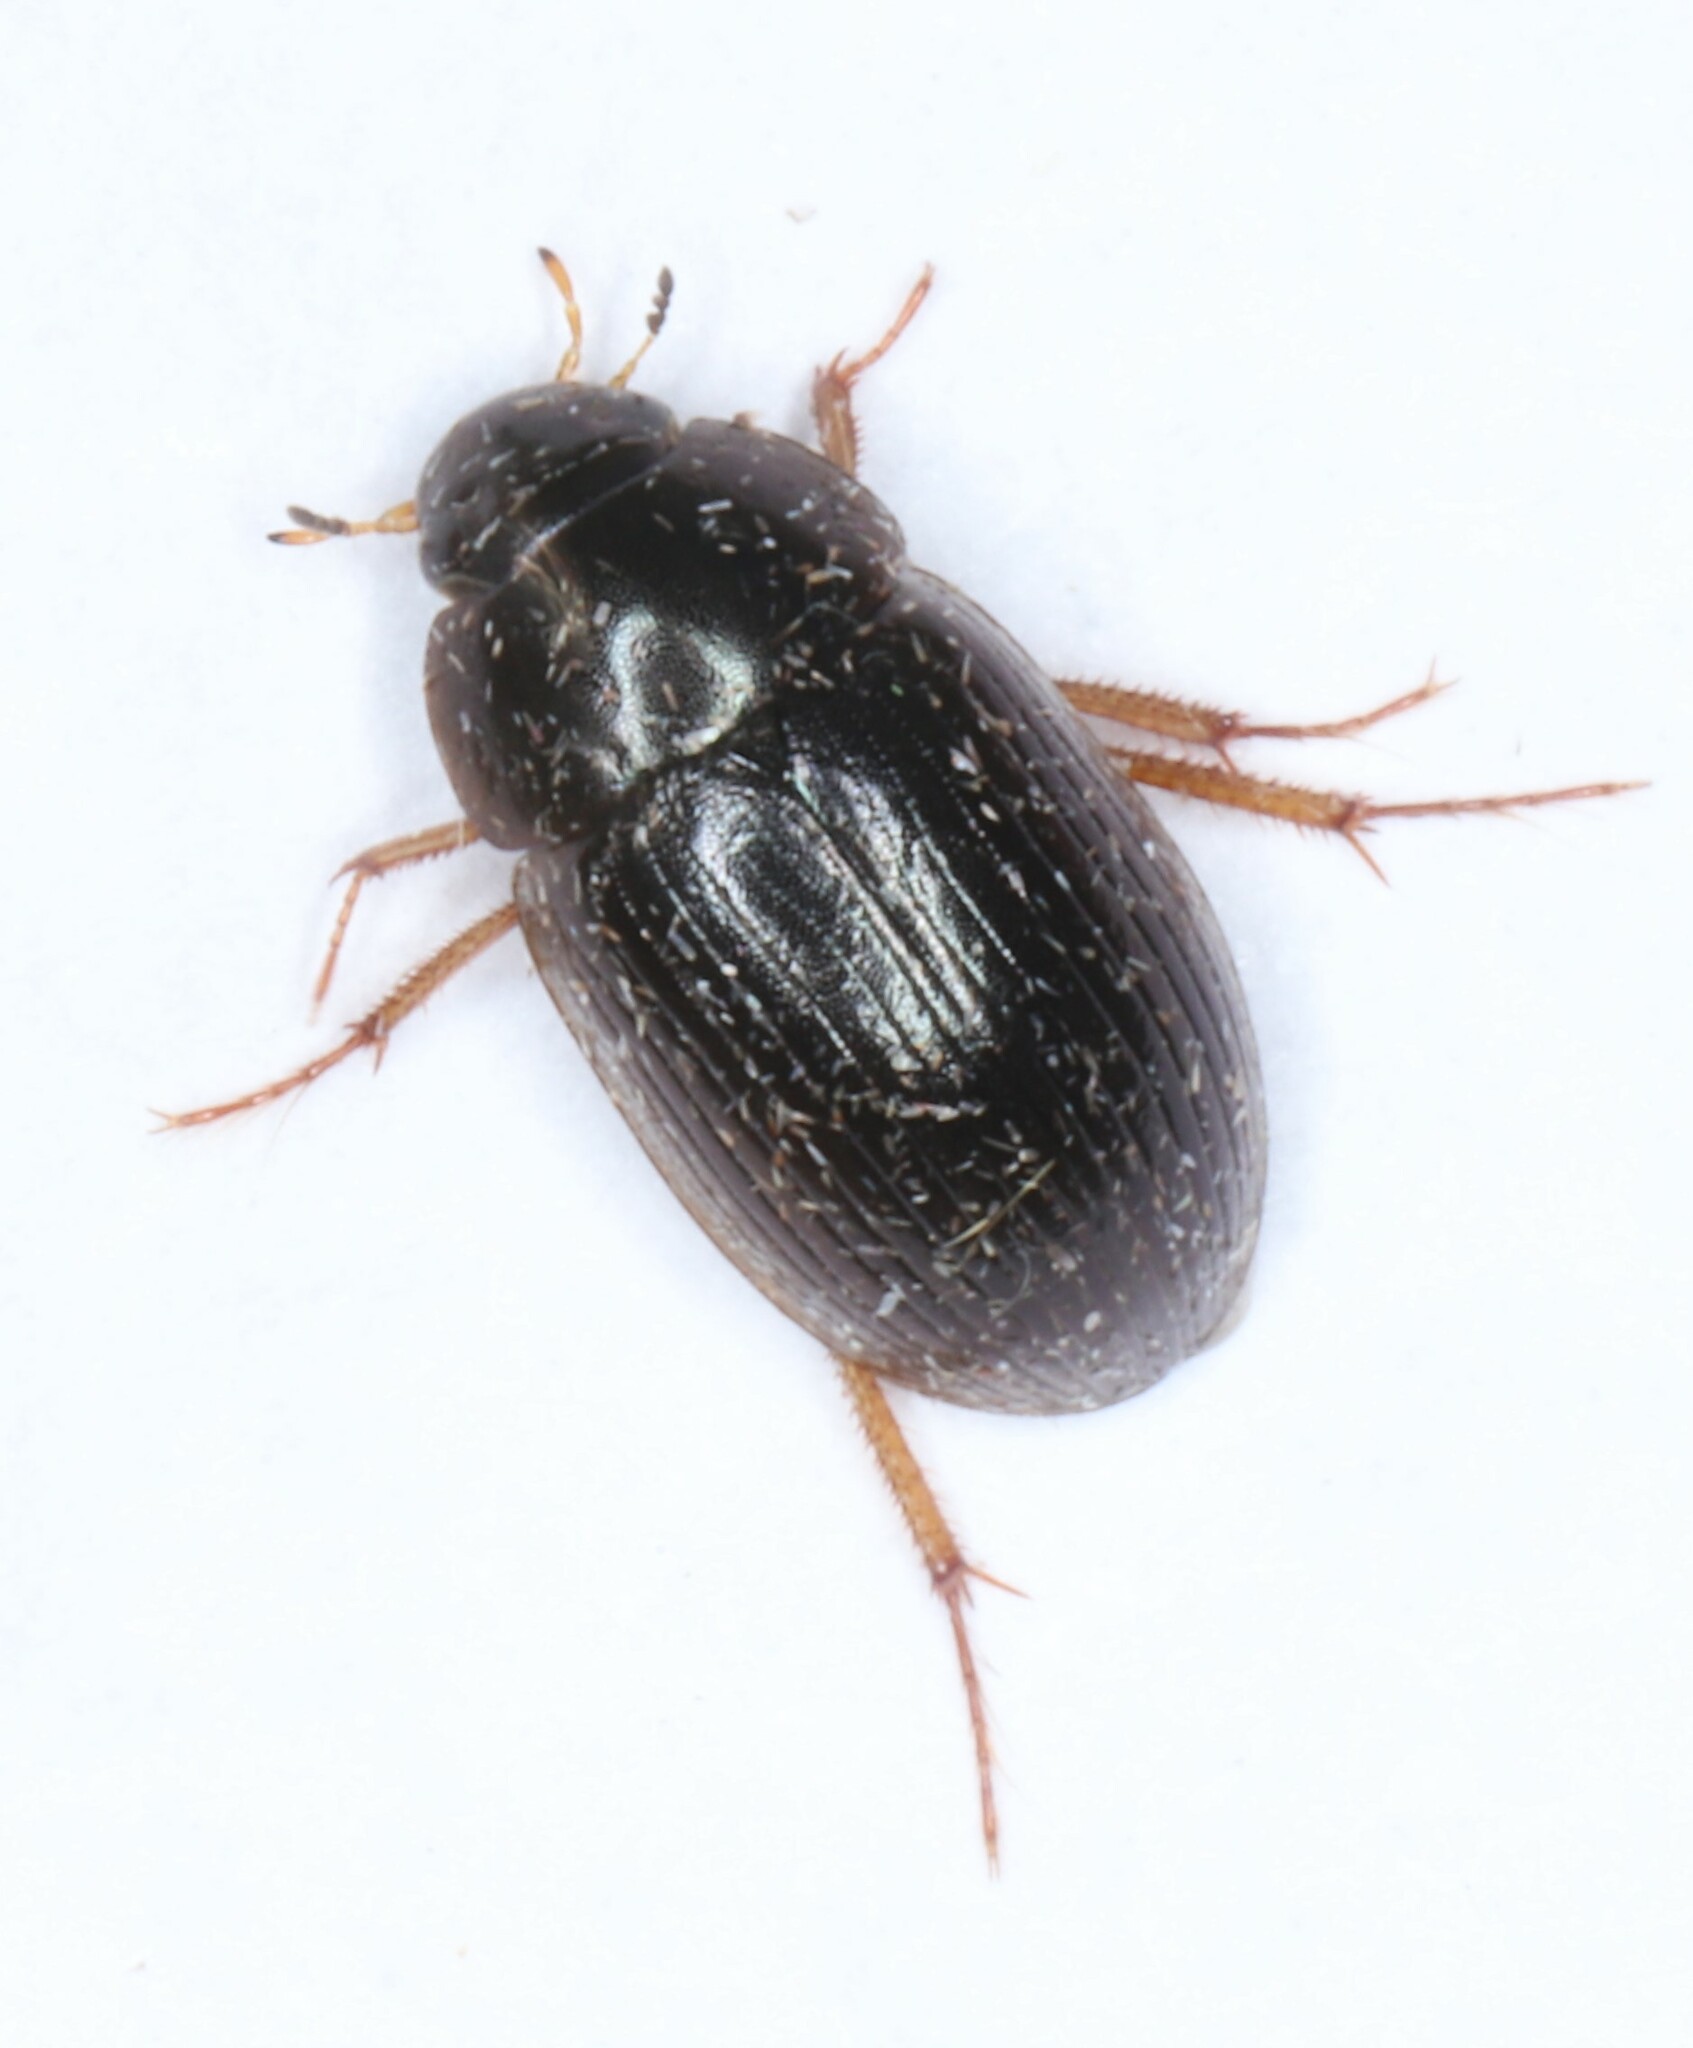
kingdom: Animalia
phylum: Arthropoda
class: Insecta
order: Coleoptera
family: Hydrophilidae
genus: Hydrobius
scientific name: Hydrobius fuscipes
